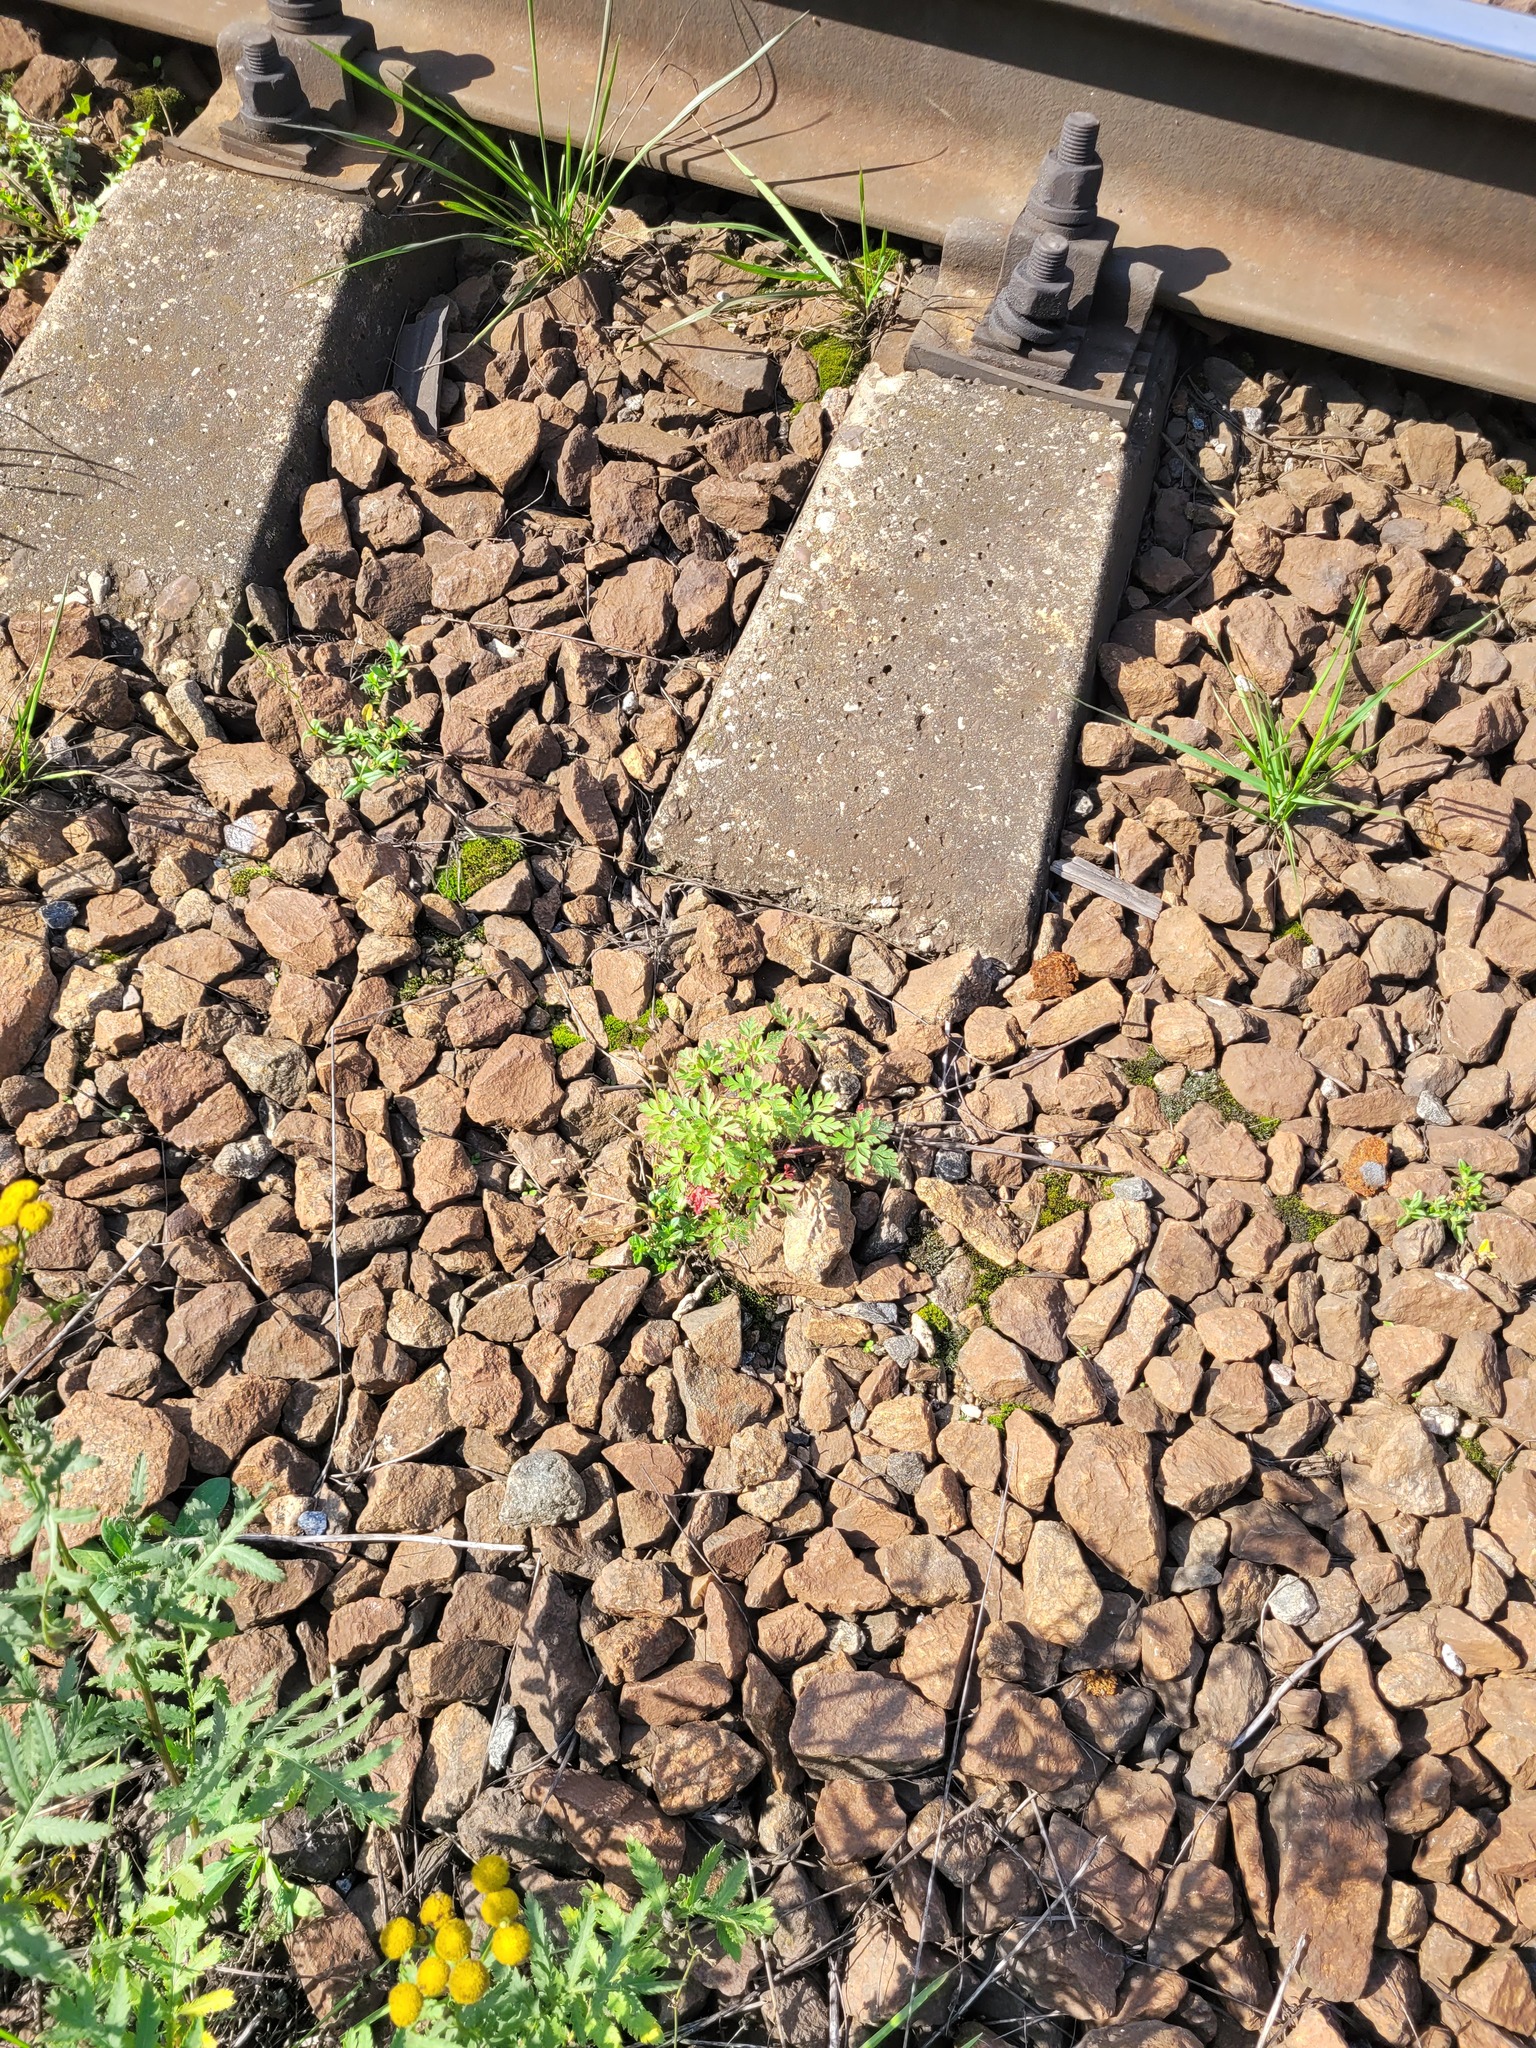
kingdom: Plantae
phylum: Tracheophyta
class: Magnoliopsida
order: Geraniales
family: Geraniaceae
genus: Geranium
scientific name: Geranium robertianum
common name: Herb-robert
